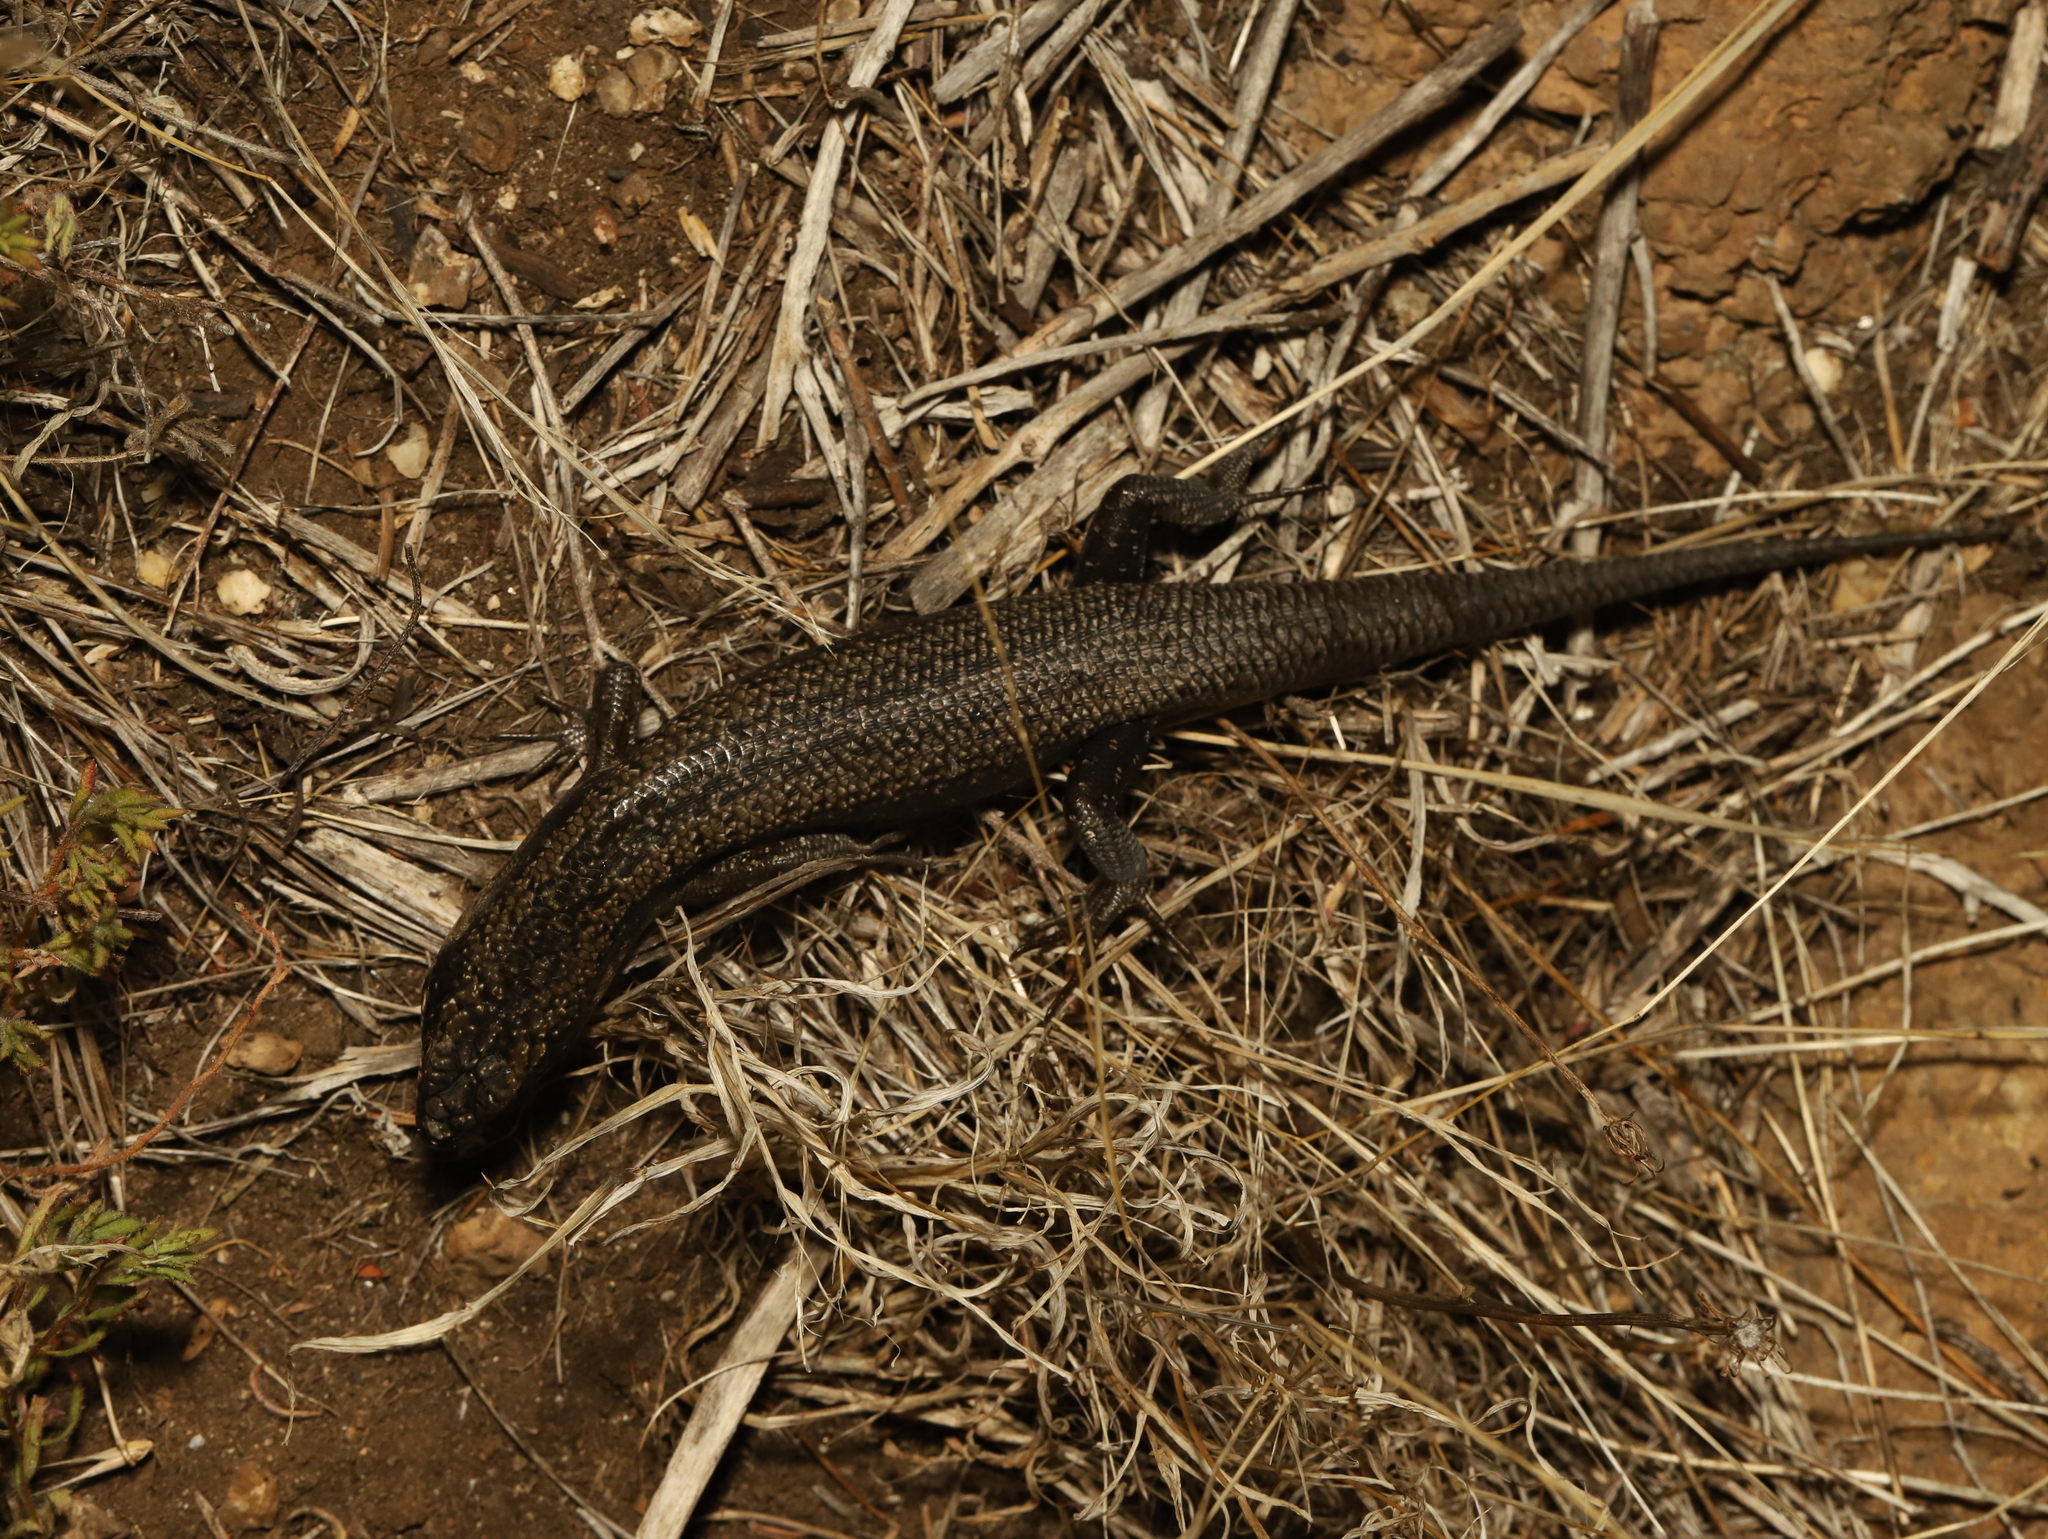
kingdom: Animalia
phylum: Chordata
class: Squamata
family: Scincidae
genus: Egernia
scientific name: Egernia striolata
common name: Tree skink
